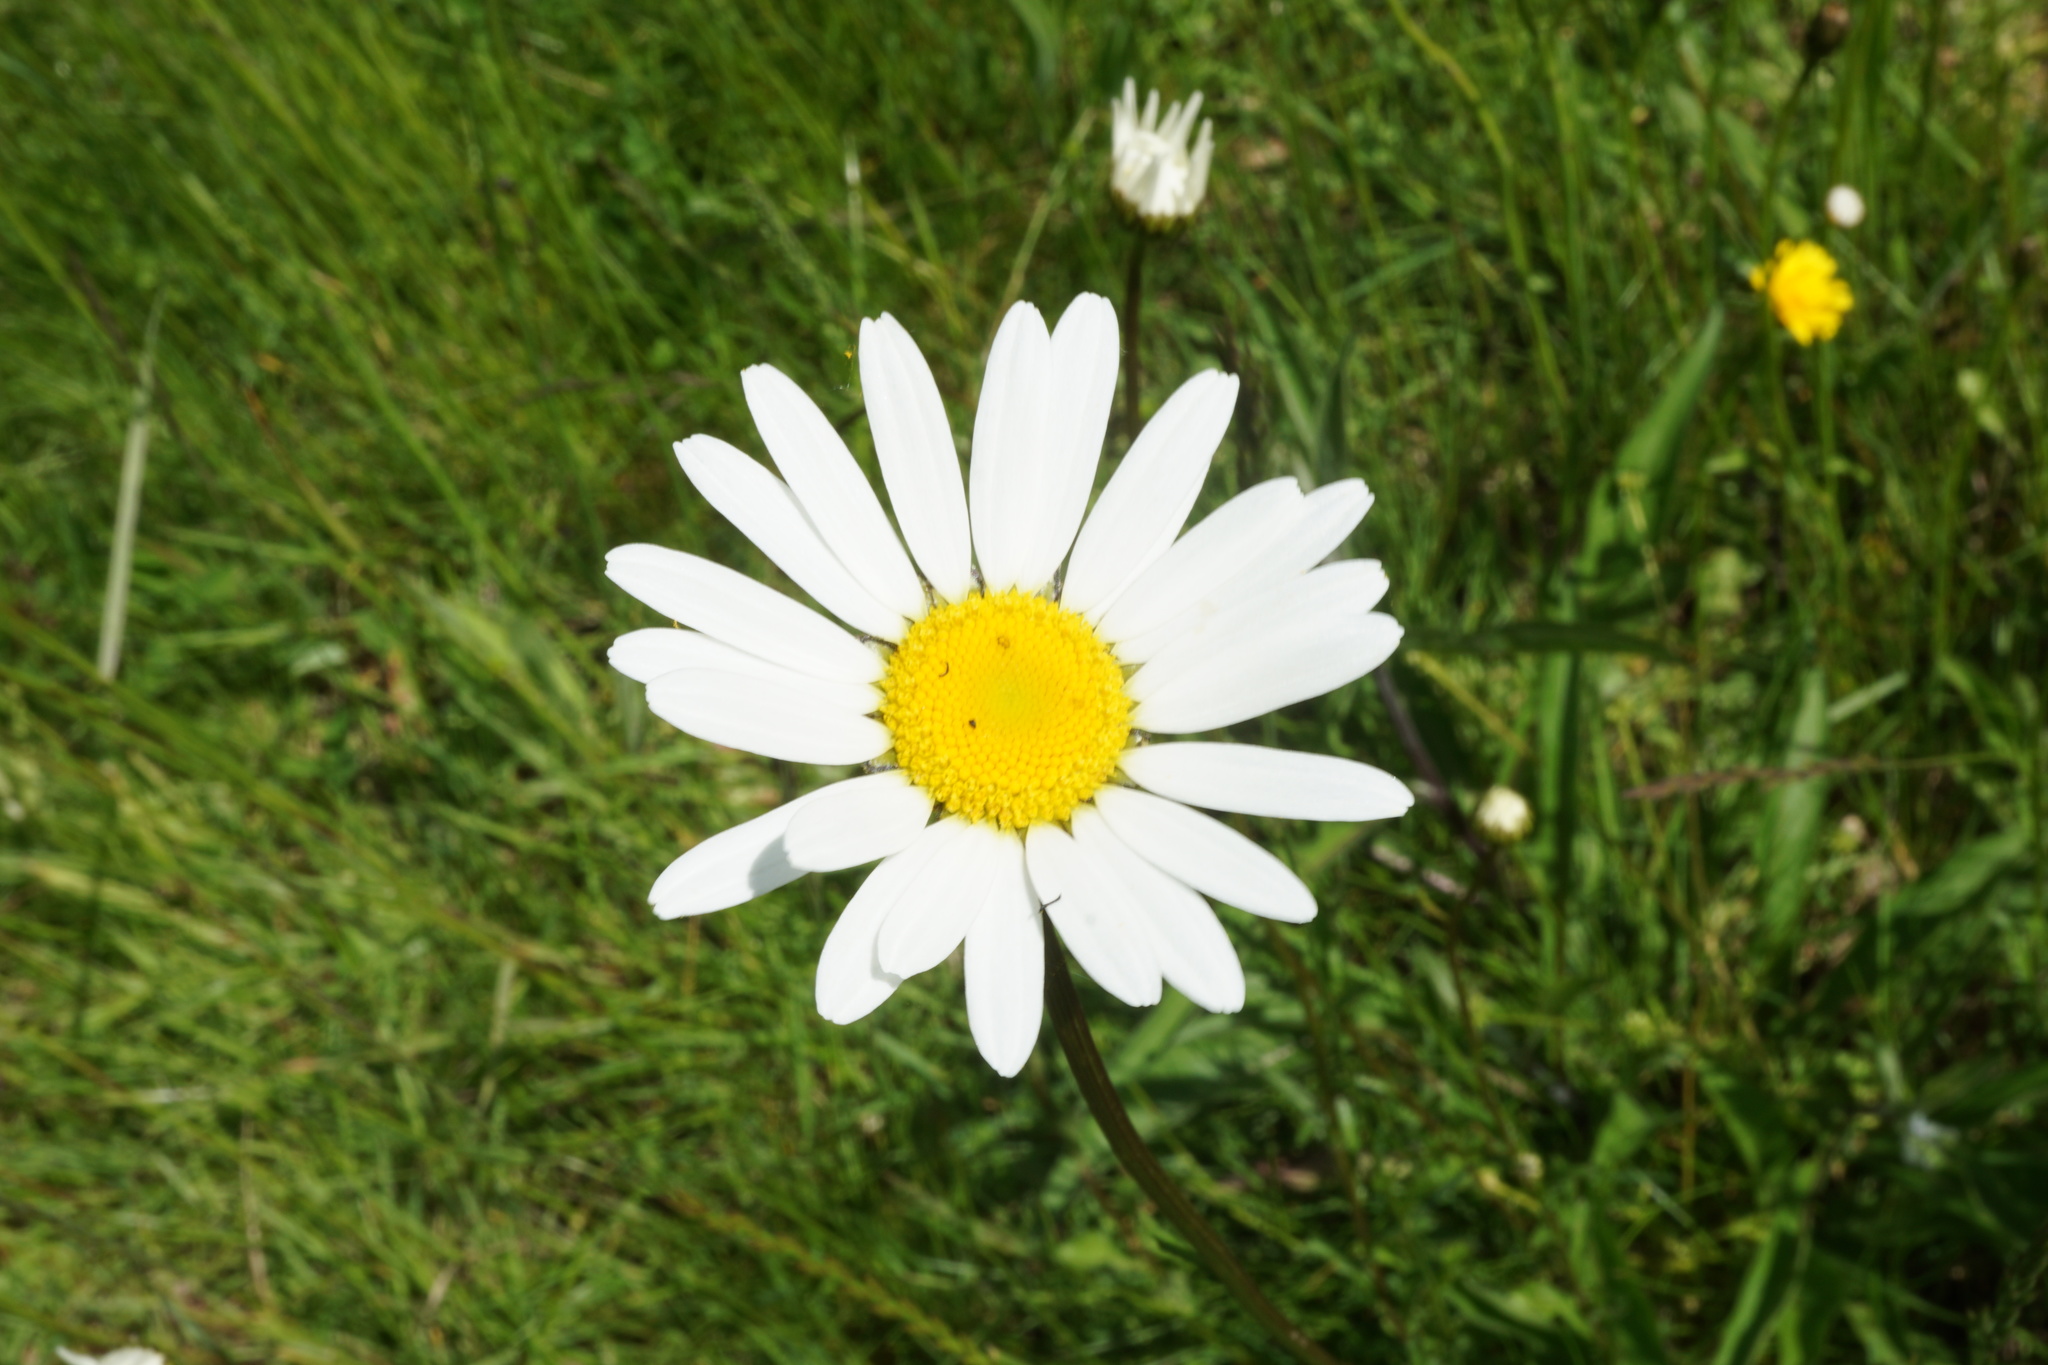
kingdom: Plantae
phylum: Tracheophyta
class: Magnoliopsida
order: Asterales
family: Asteraceae
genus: Leucanthemum
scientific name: Leucanthemum vulgare
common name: Oxeye daisy
